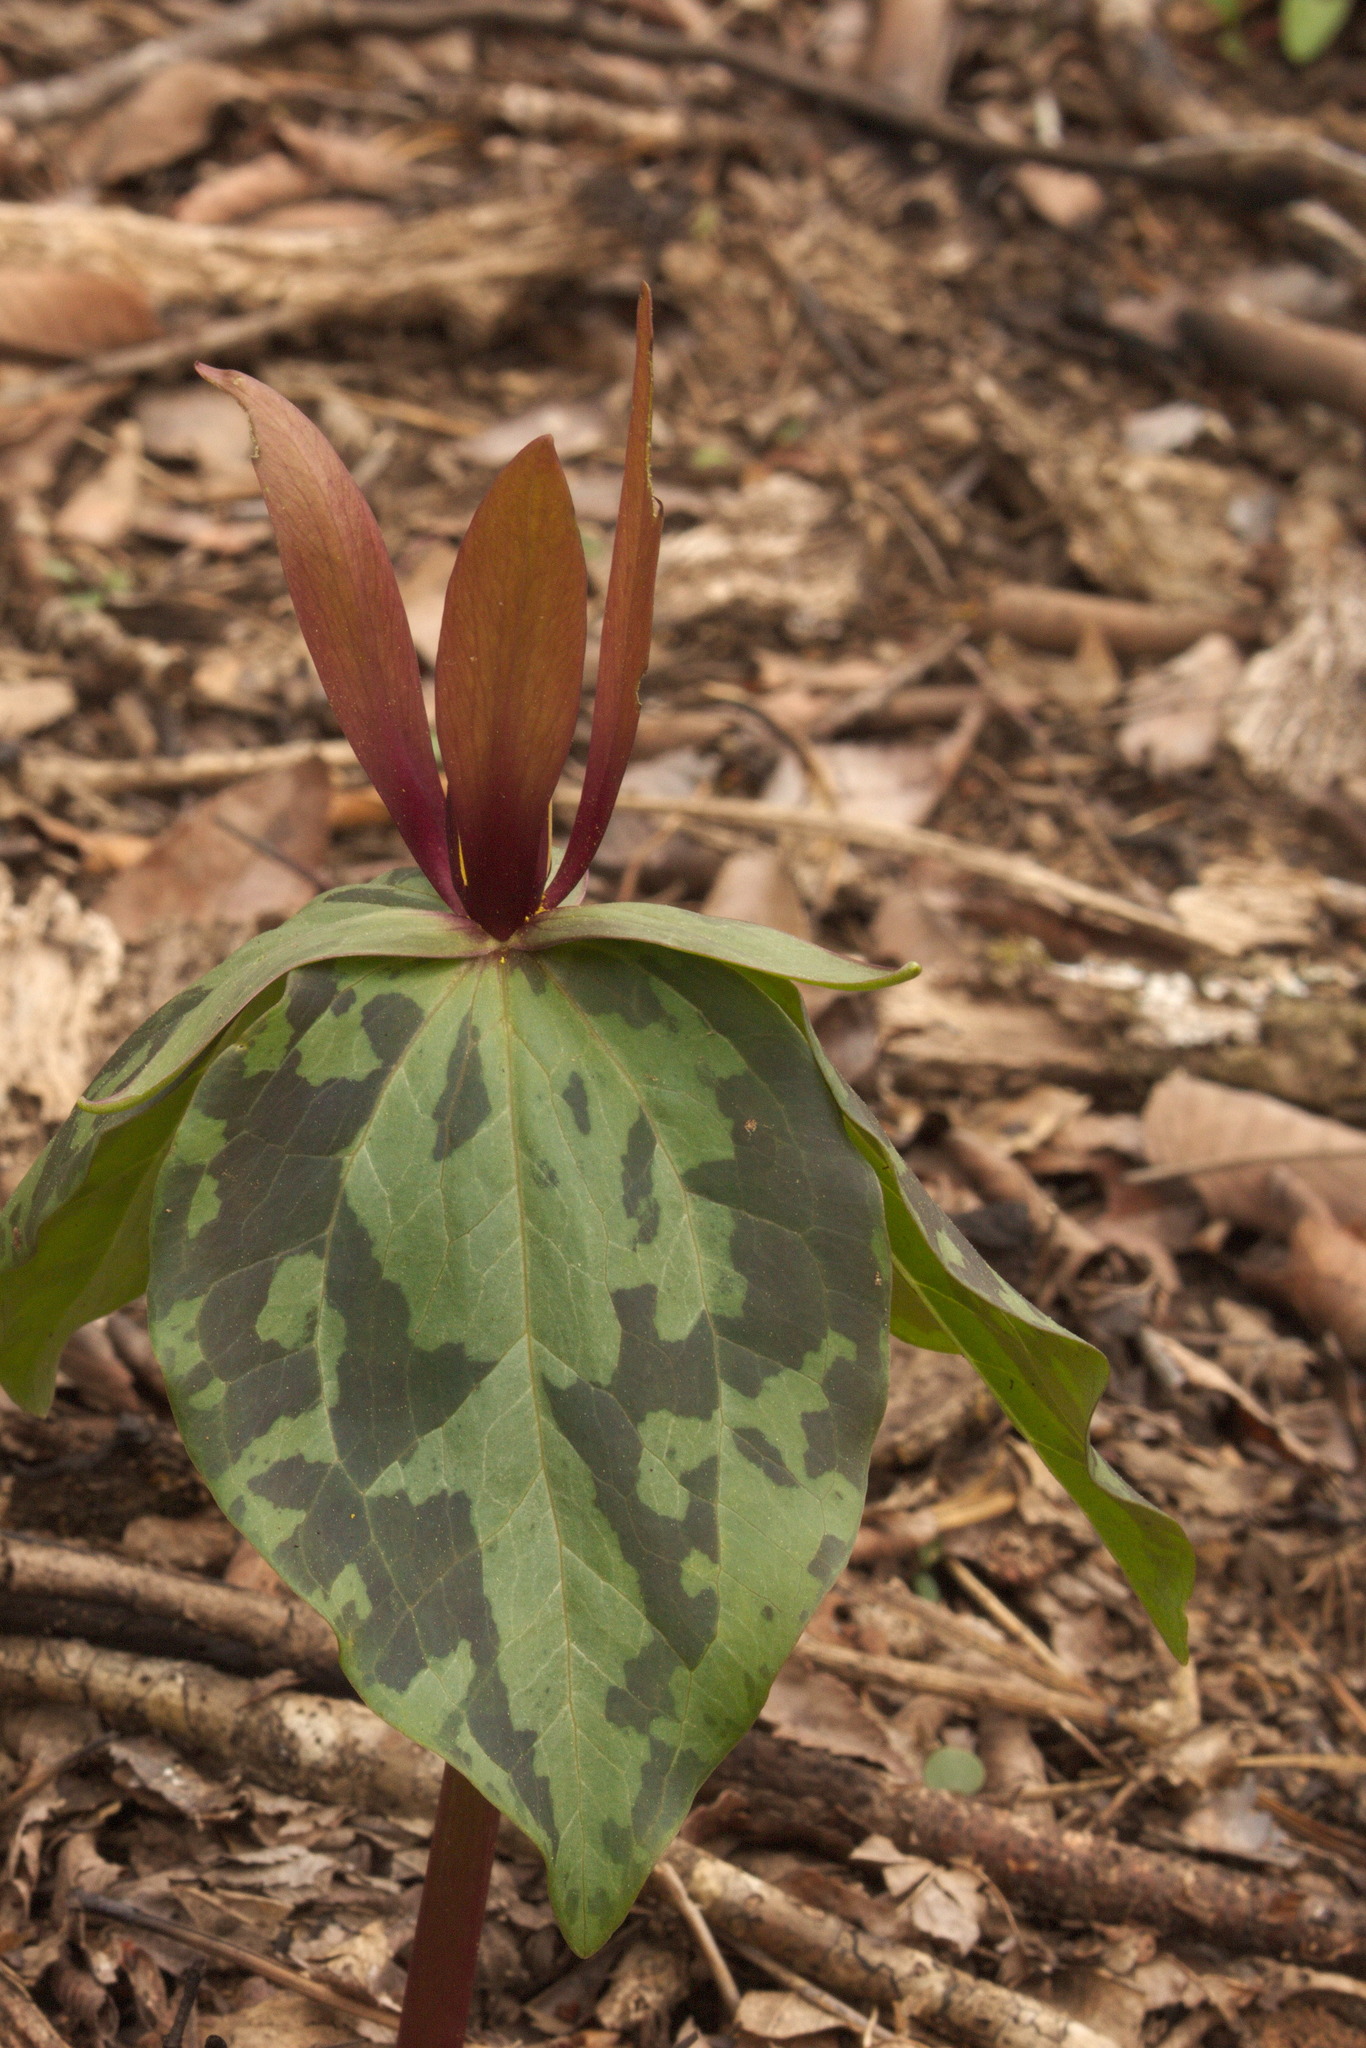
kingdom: Plantae
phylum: Tracheophyta
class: Liliopsida
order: Liliales
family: Melanthiaceae
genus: Trillium
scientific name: Trillium cuneatum
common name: Cuneate trillium
